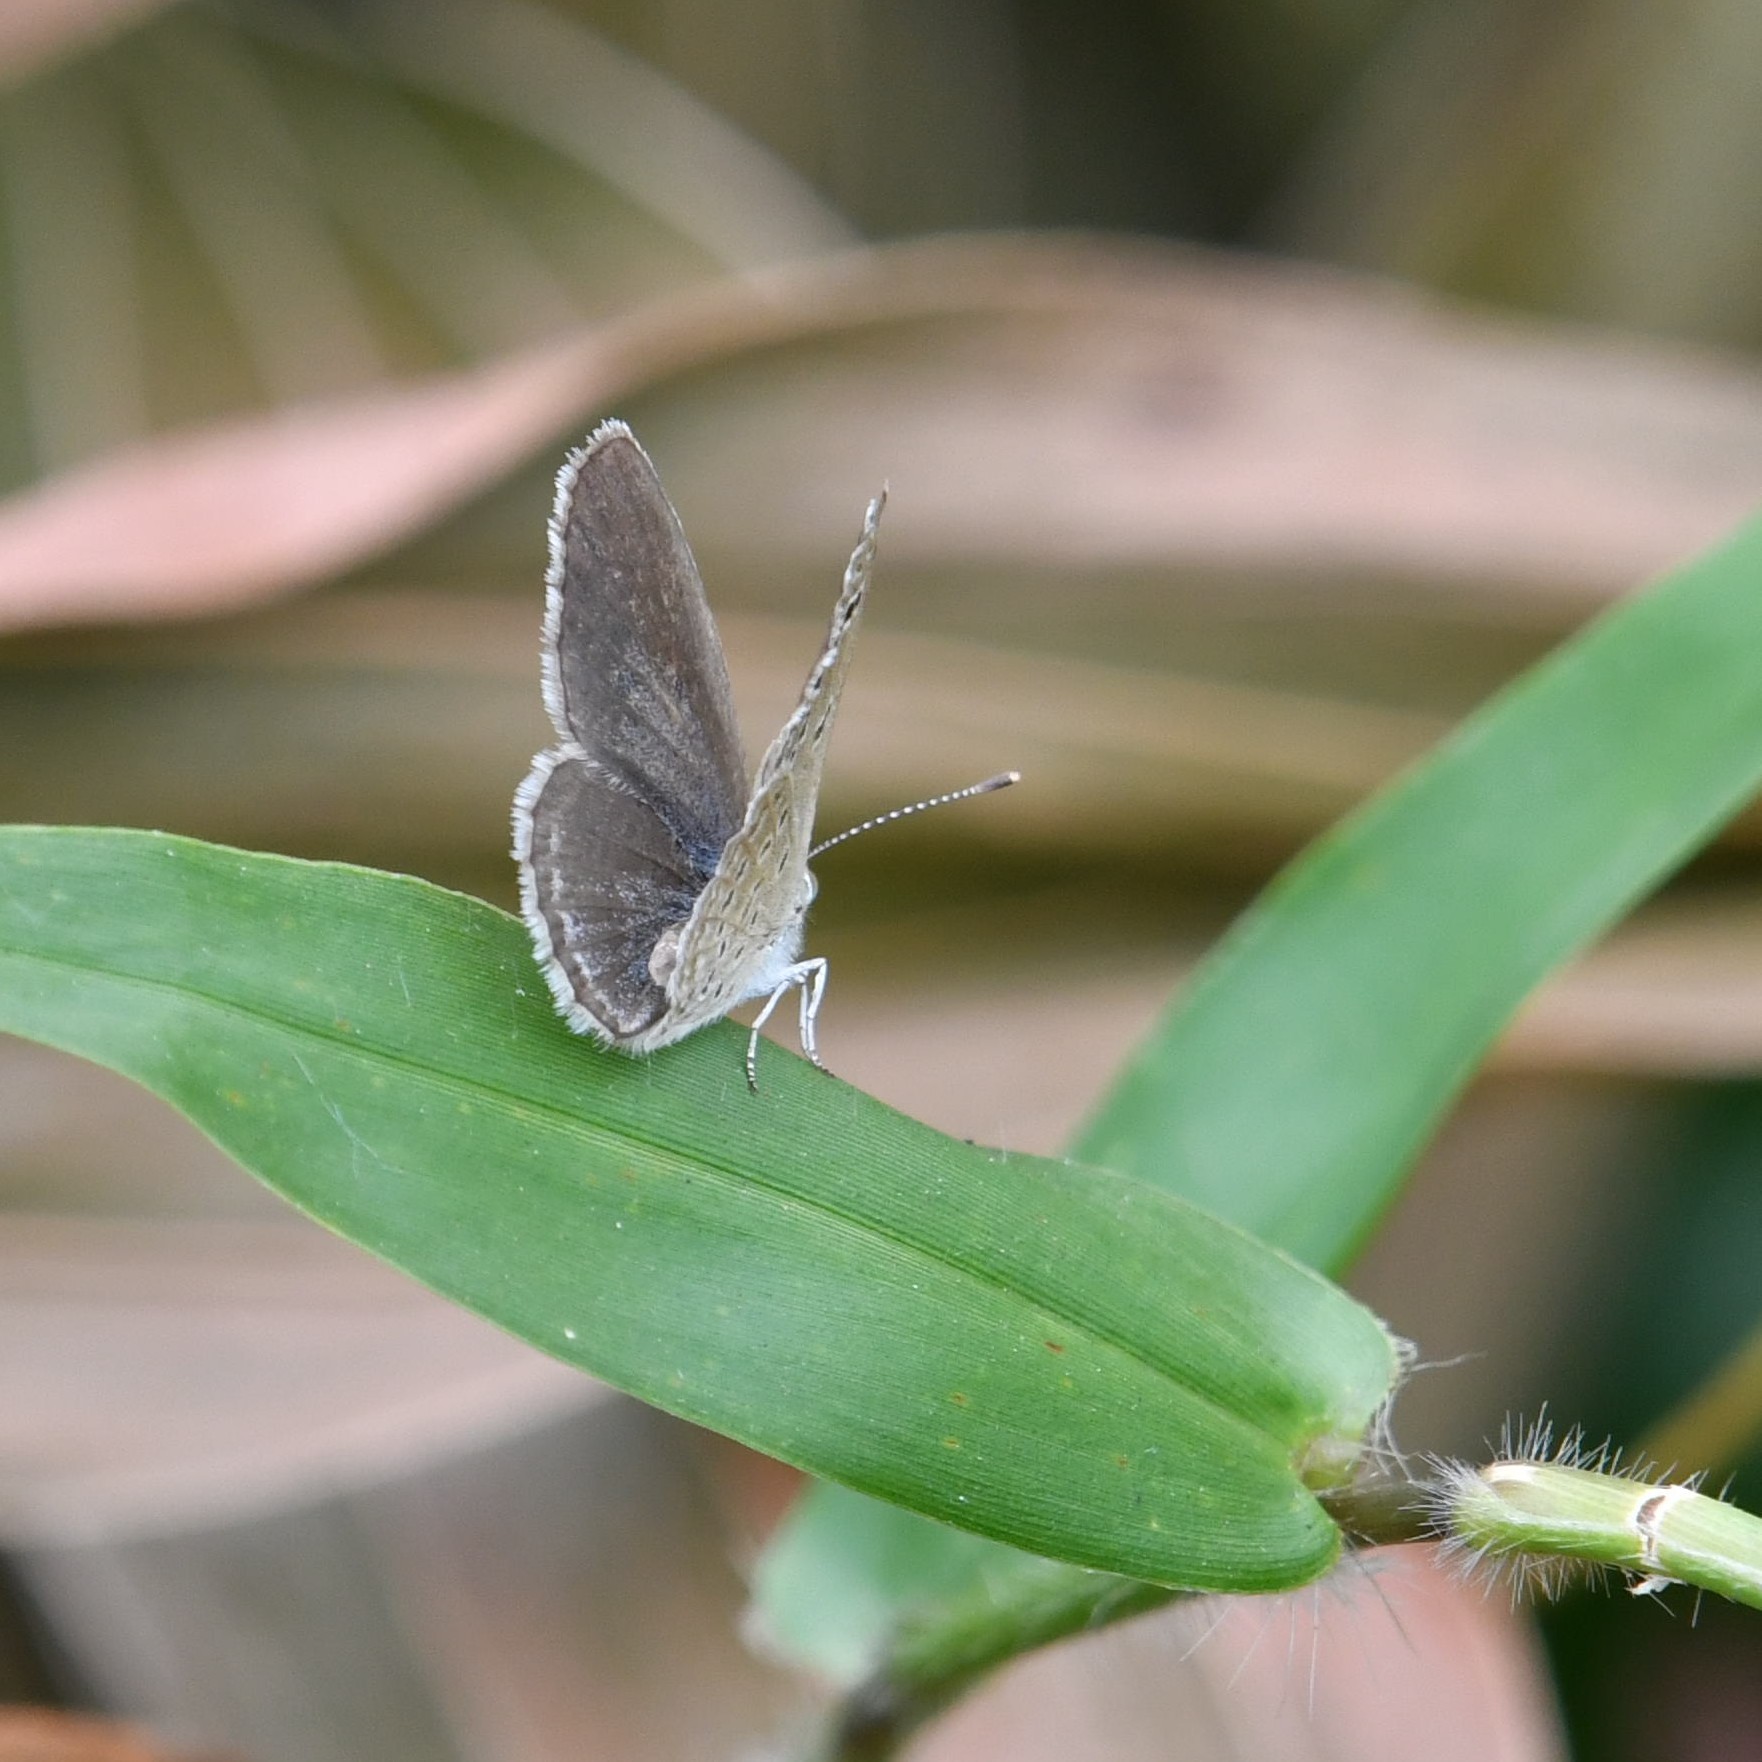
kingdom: Animalia
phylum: Arthropoda
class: Insecta
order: Lepidoptera
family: Lycaenidae
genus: Zizina
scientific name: Zizina otis
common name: Lesser grass blue
